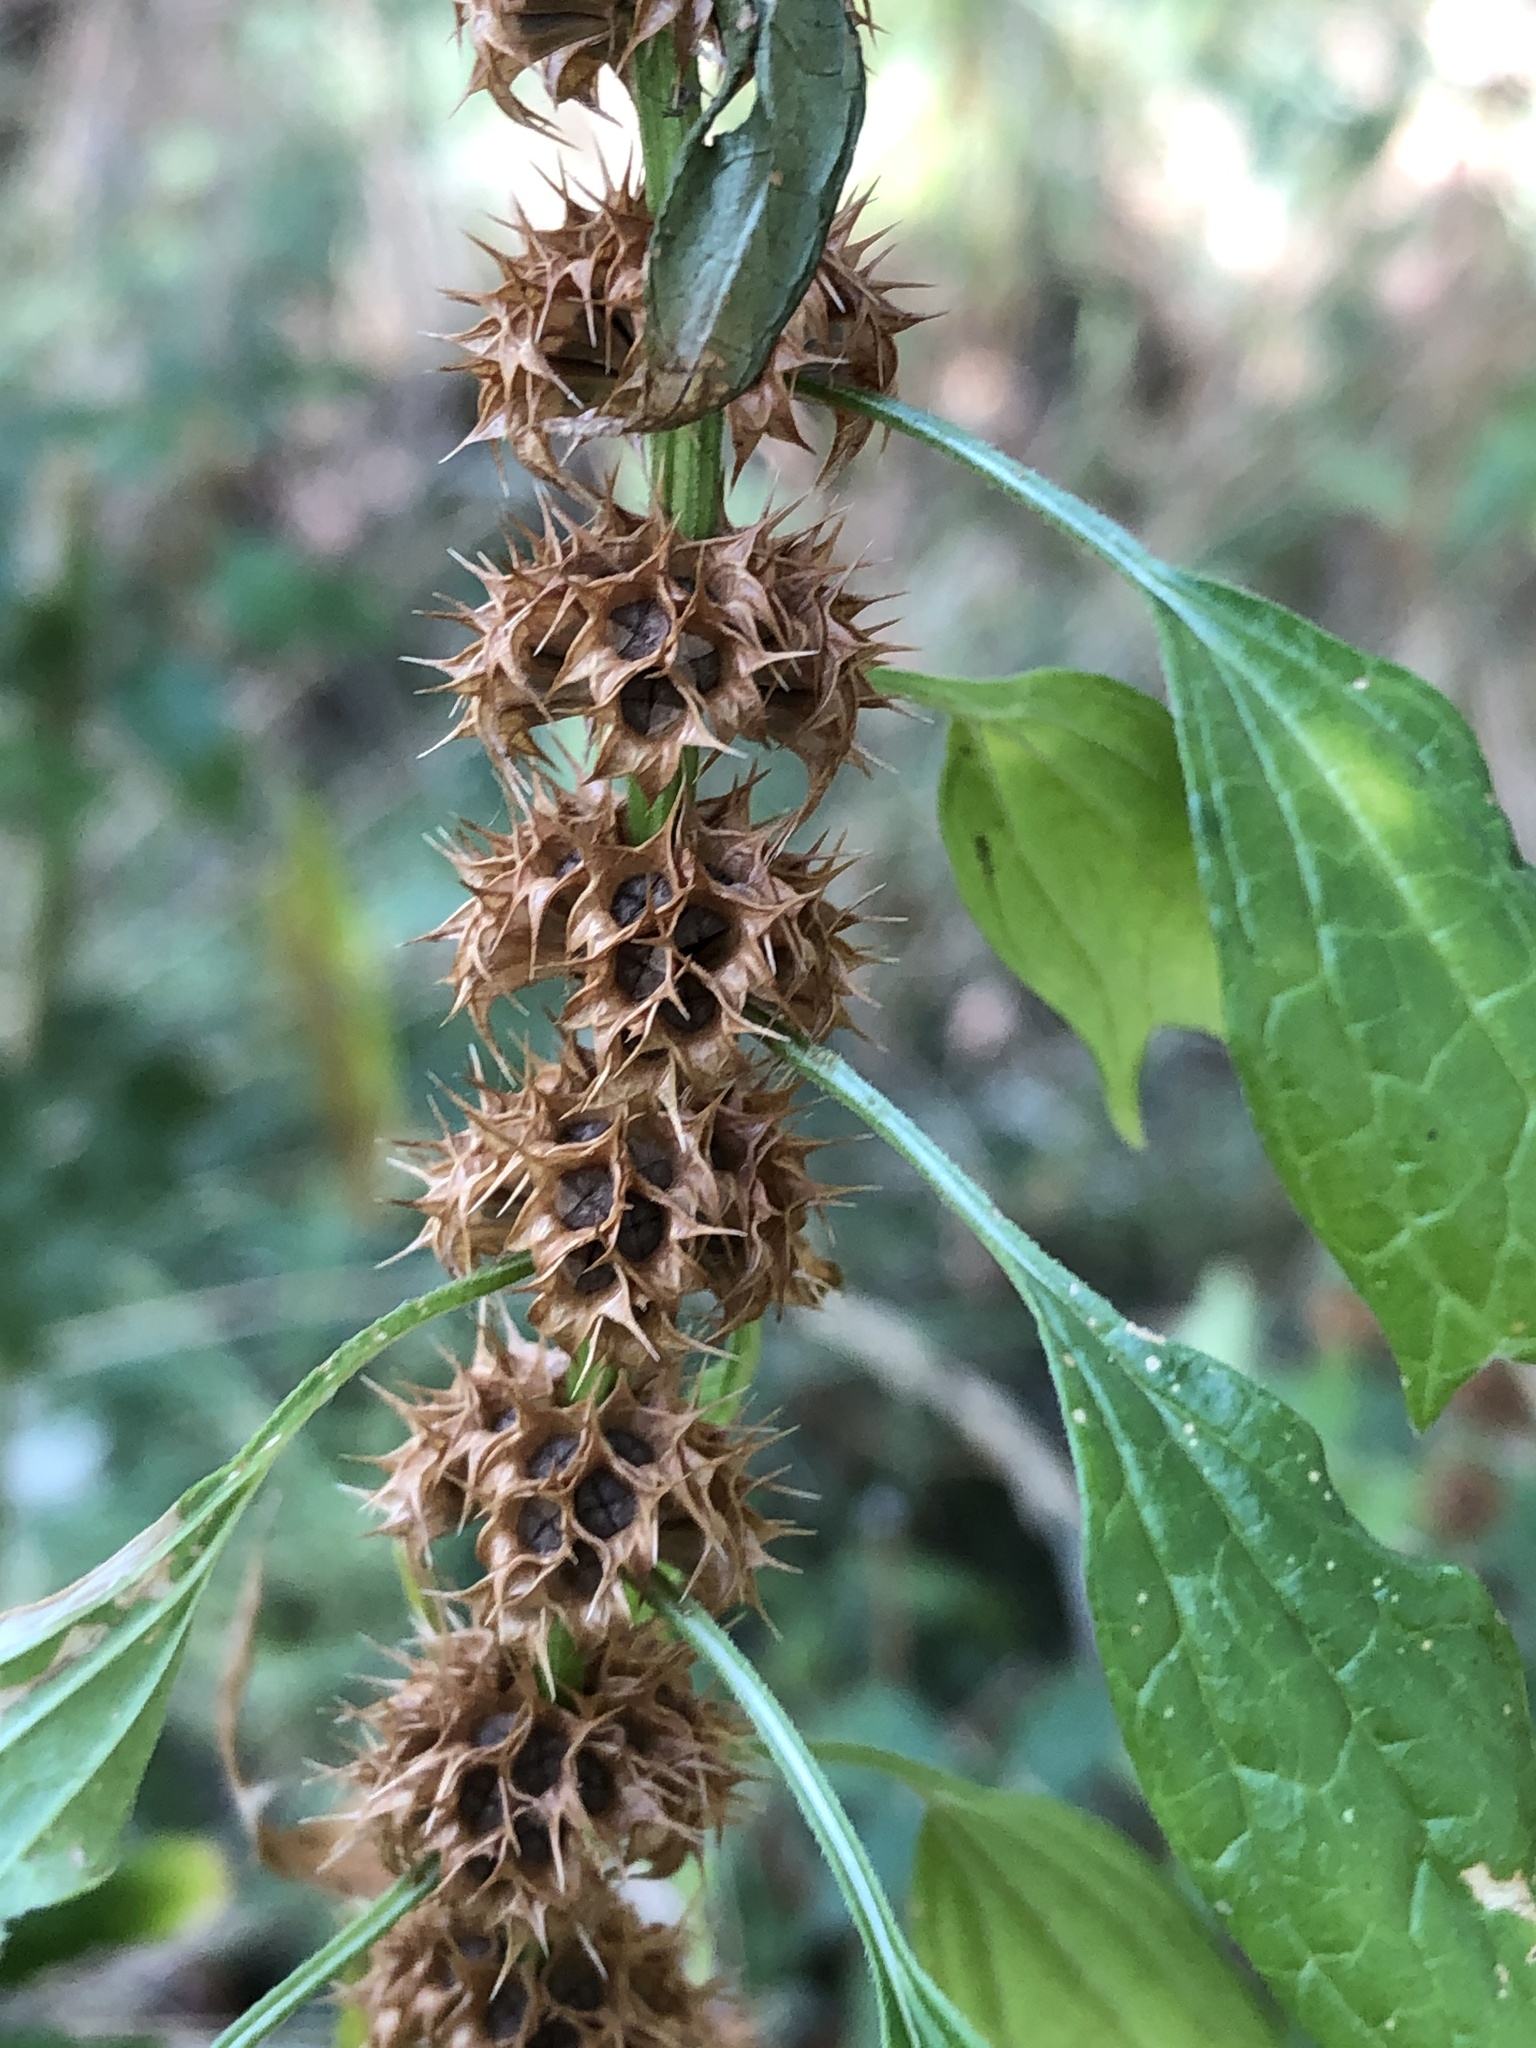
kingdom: Plantae
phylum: Tracheophyta
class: Magnoliopsida
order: Lamiales
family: Lamiaceae
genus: Leonurus
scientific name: Leonurus cardiaca
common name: Motherwort
